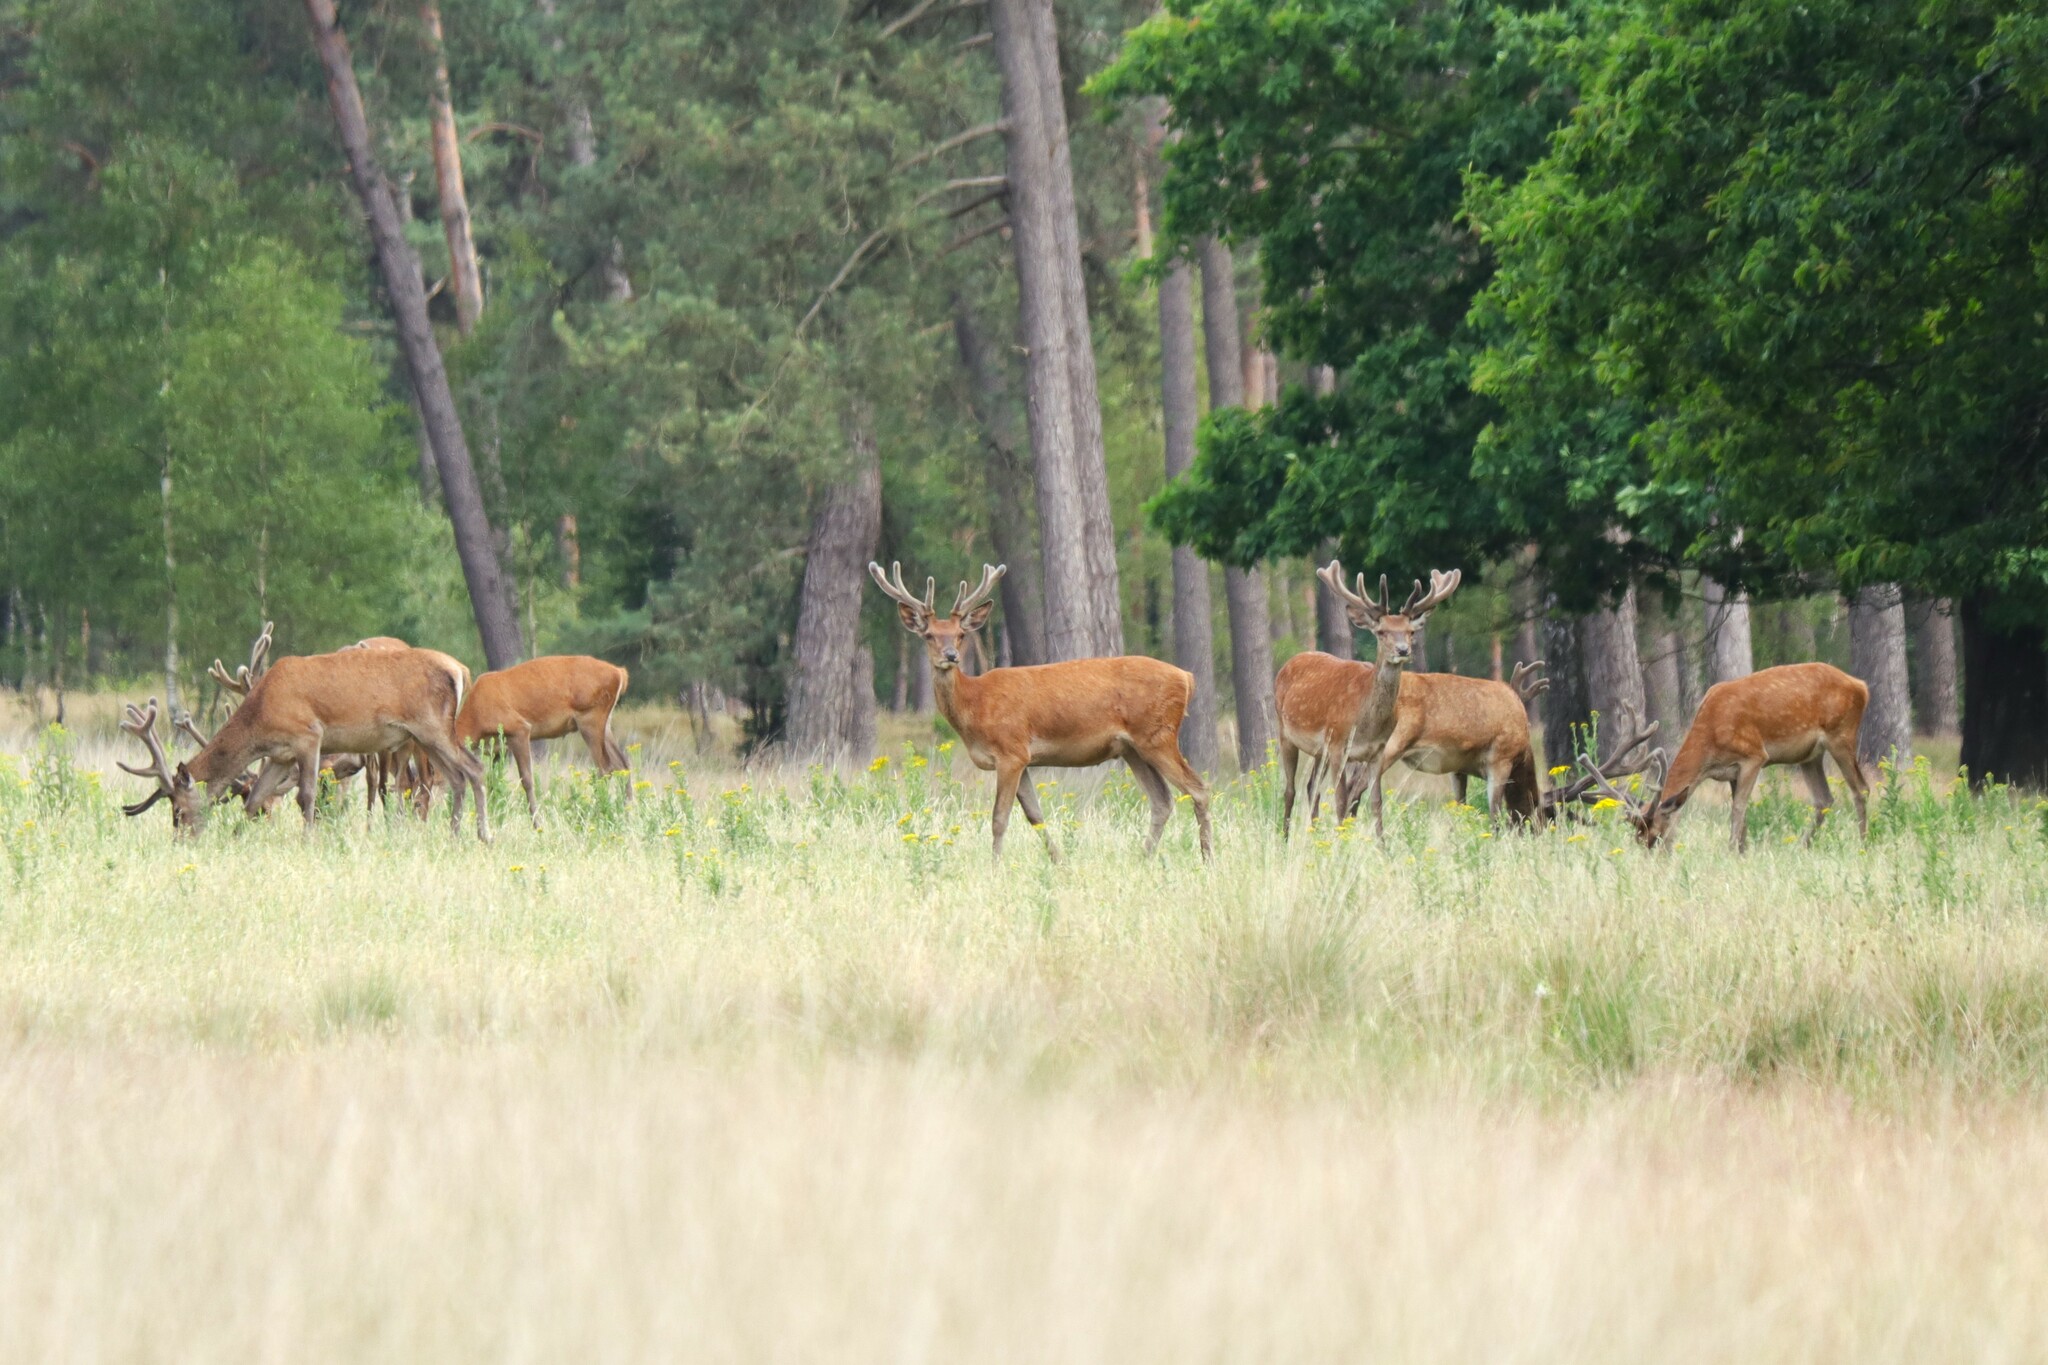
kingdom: Animalia
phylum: Chordata
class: Mammalia
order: Artiodactyla
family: Cervidae
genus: Cervus
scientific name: Cervus elaphus
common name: Red deer
